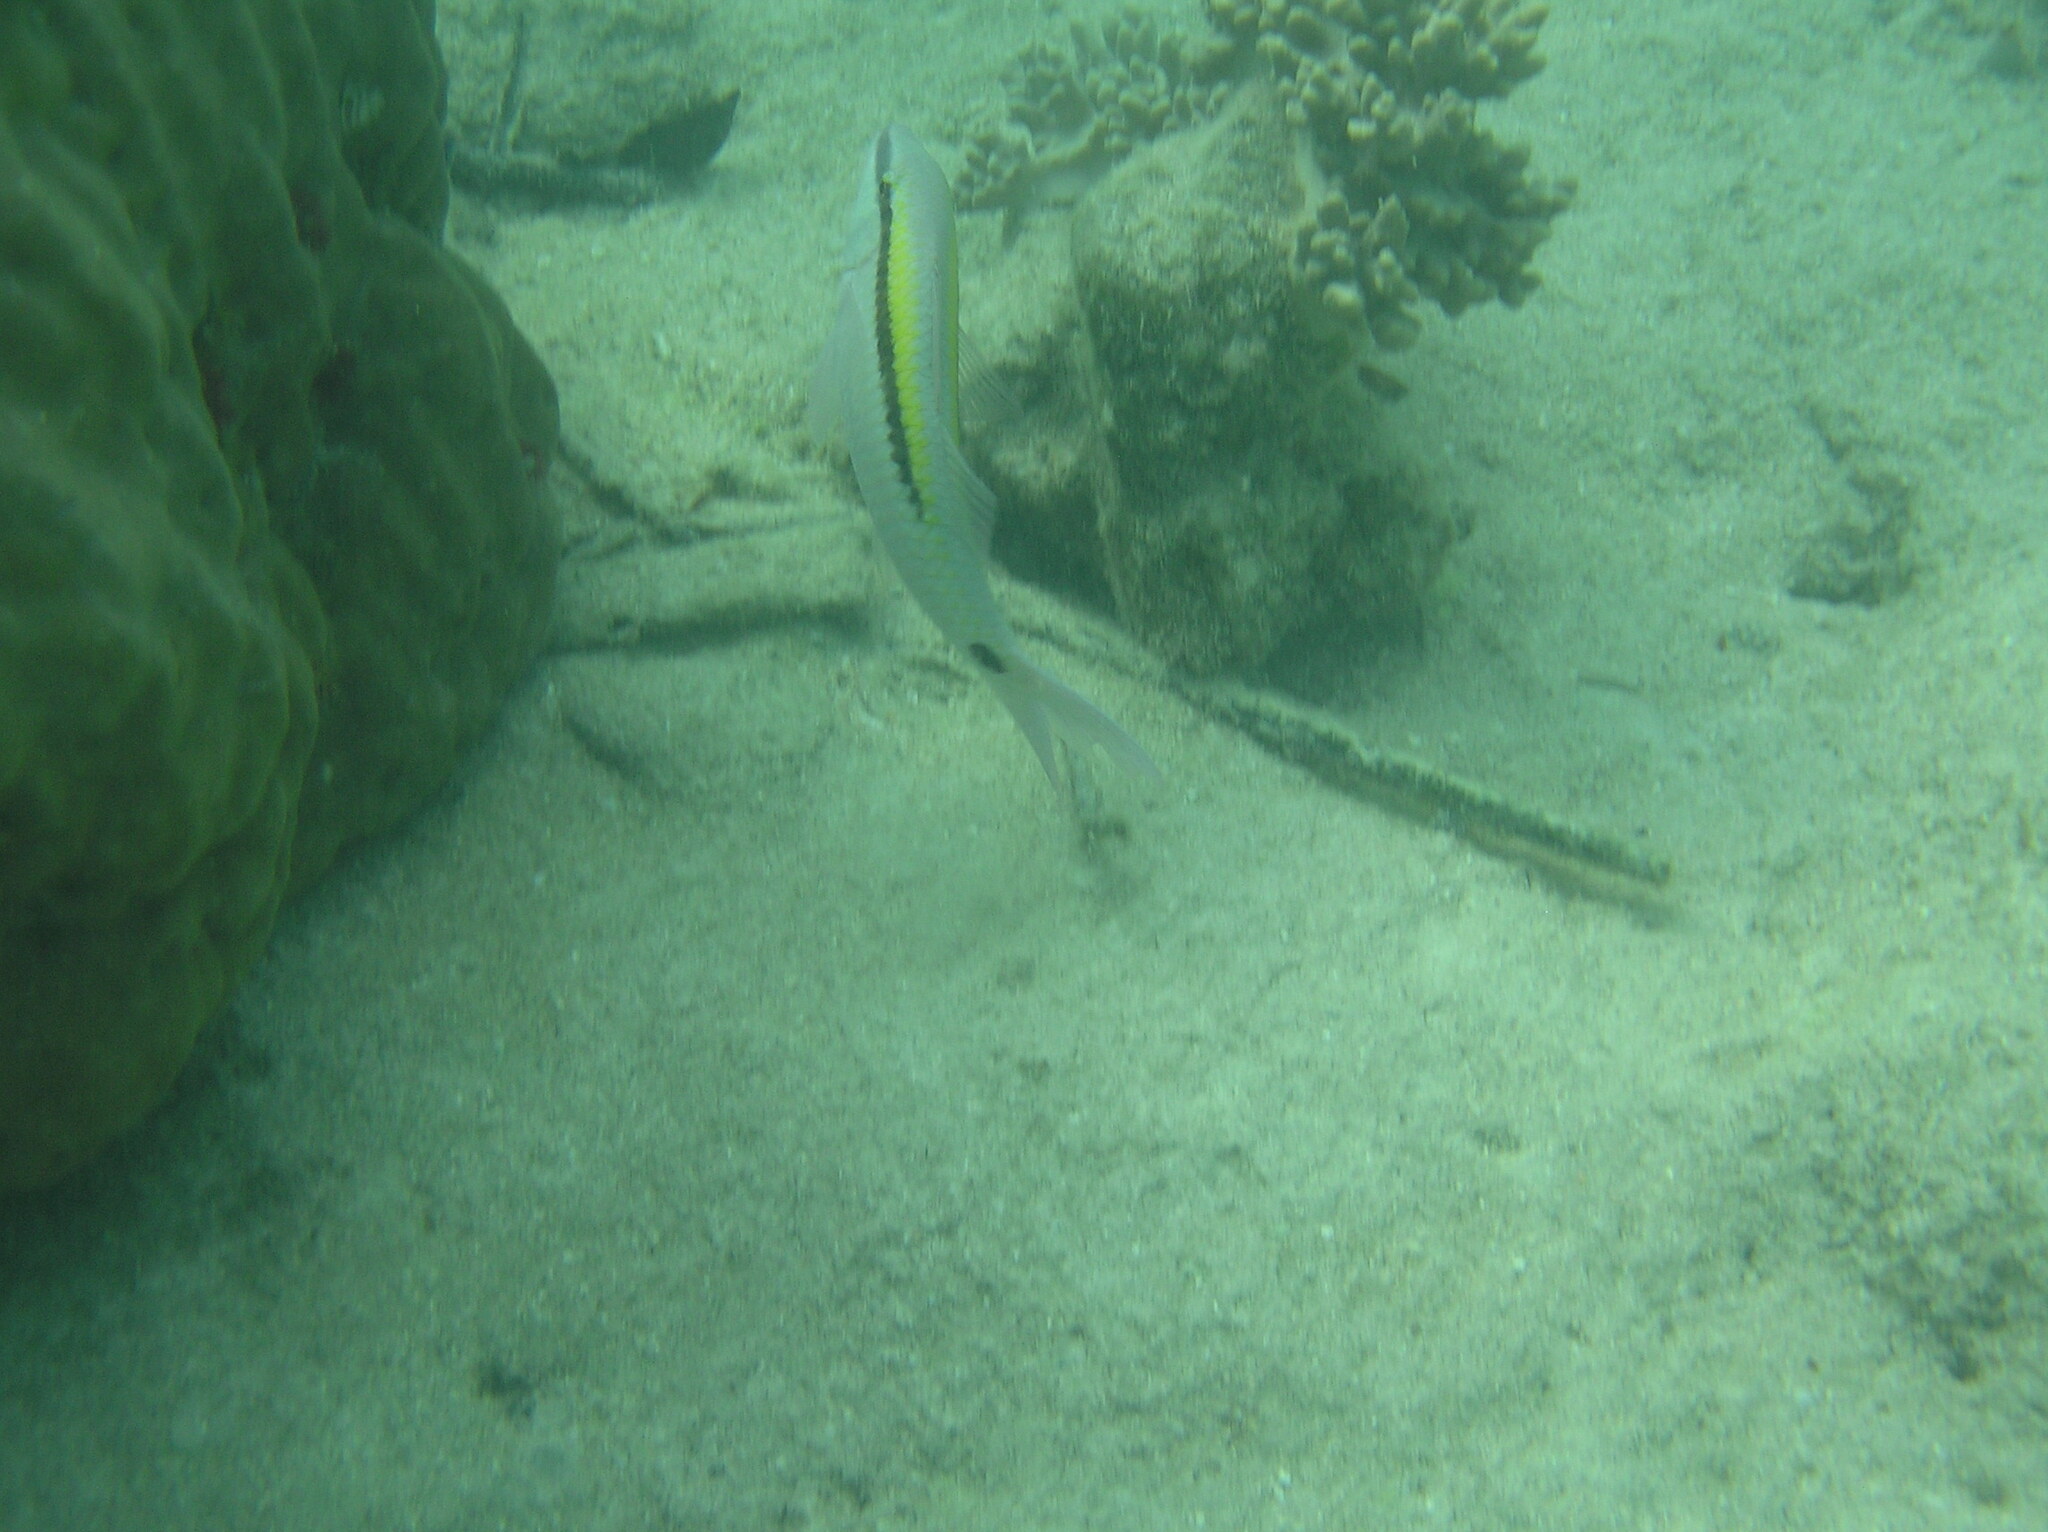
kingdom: Animalia
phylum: Chordata
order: Perciformes
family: Mullidae
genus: Parupeneus
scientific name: Parupeneus barberinus
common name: Dash-and-dot goatfish
